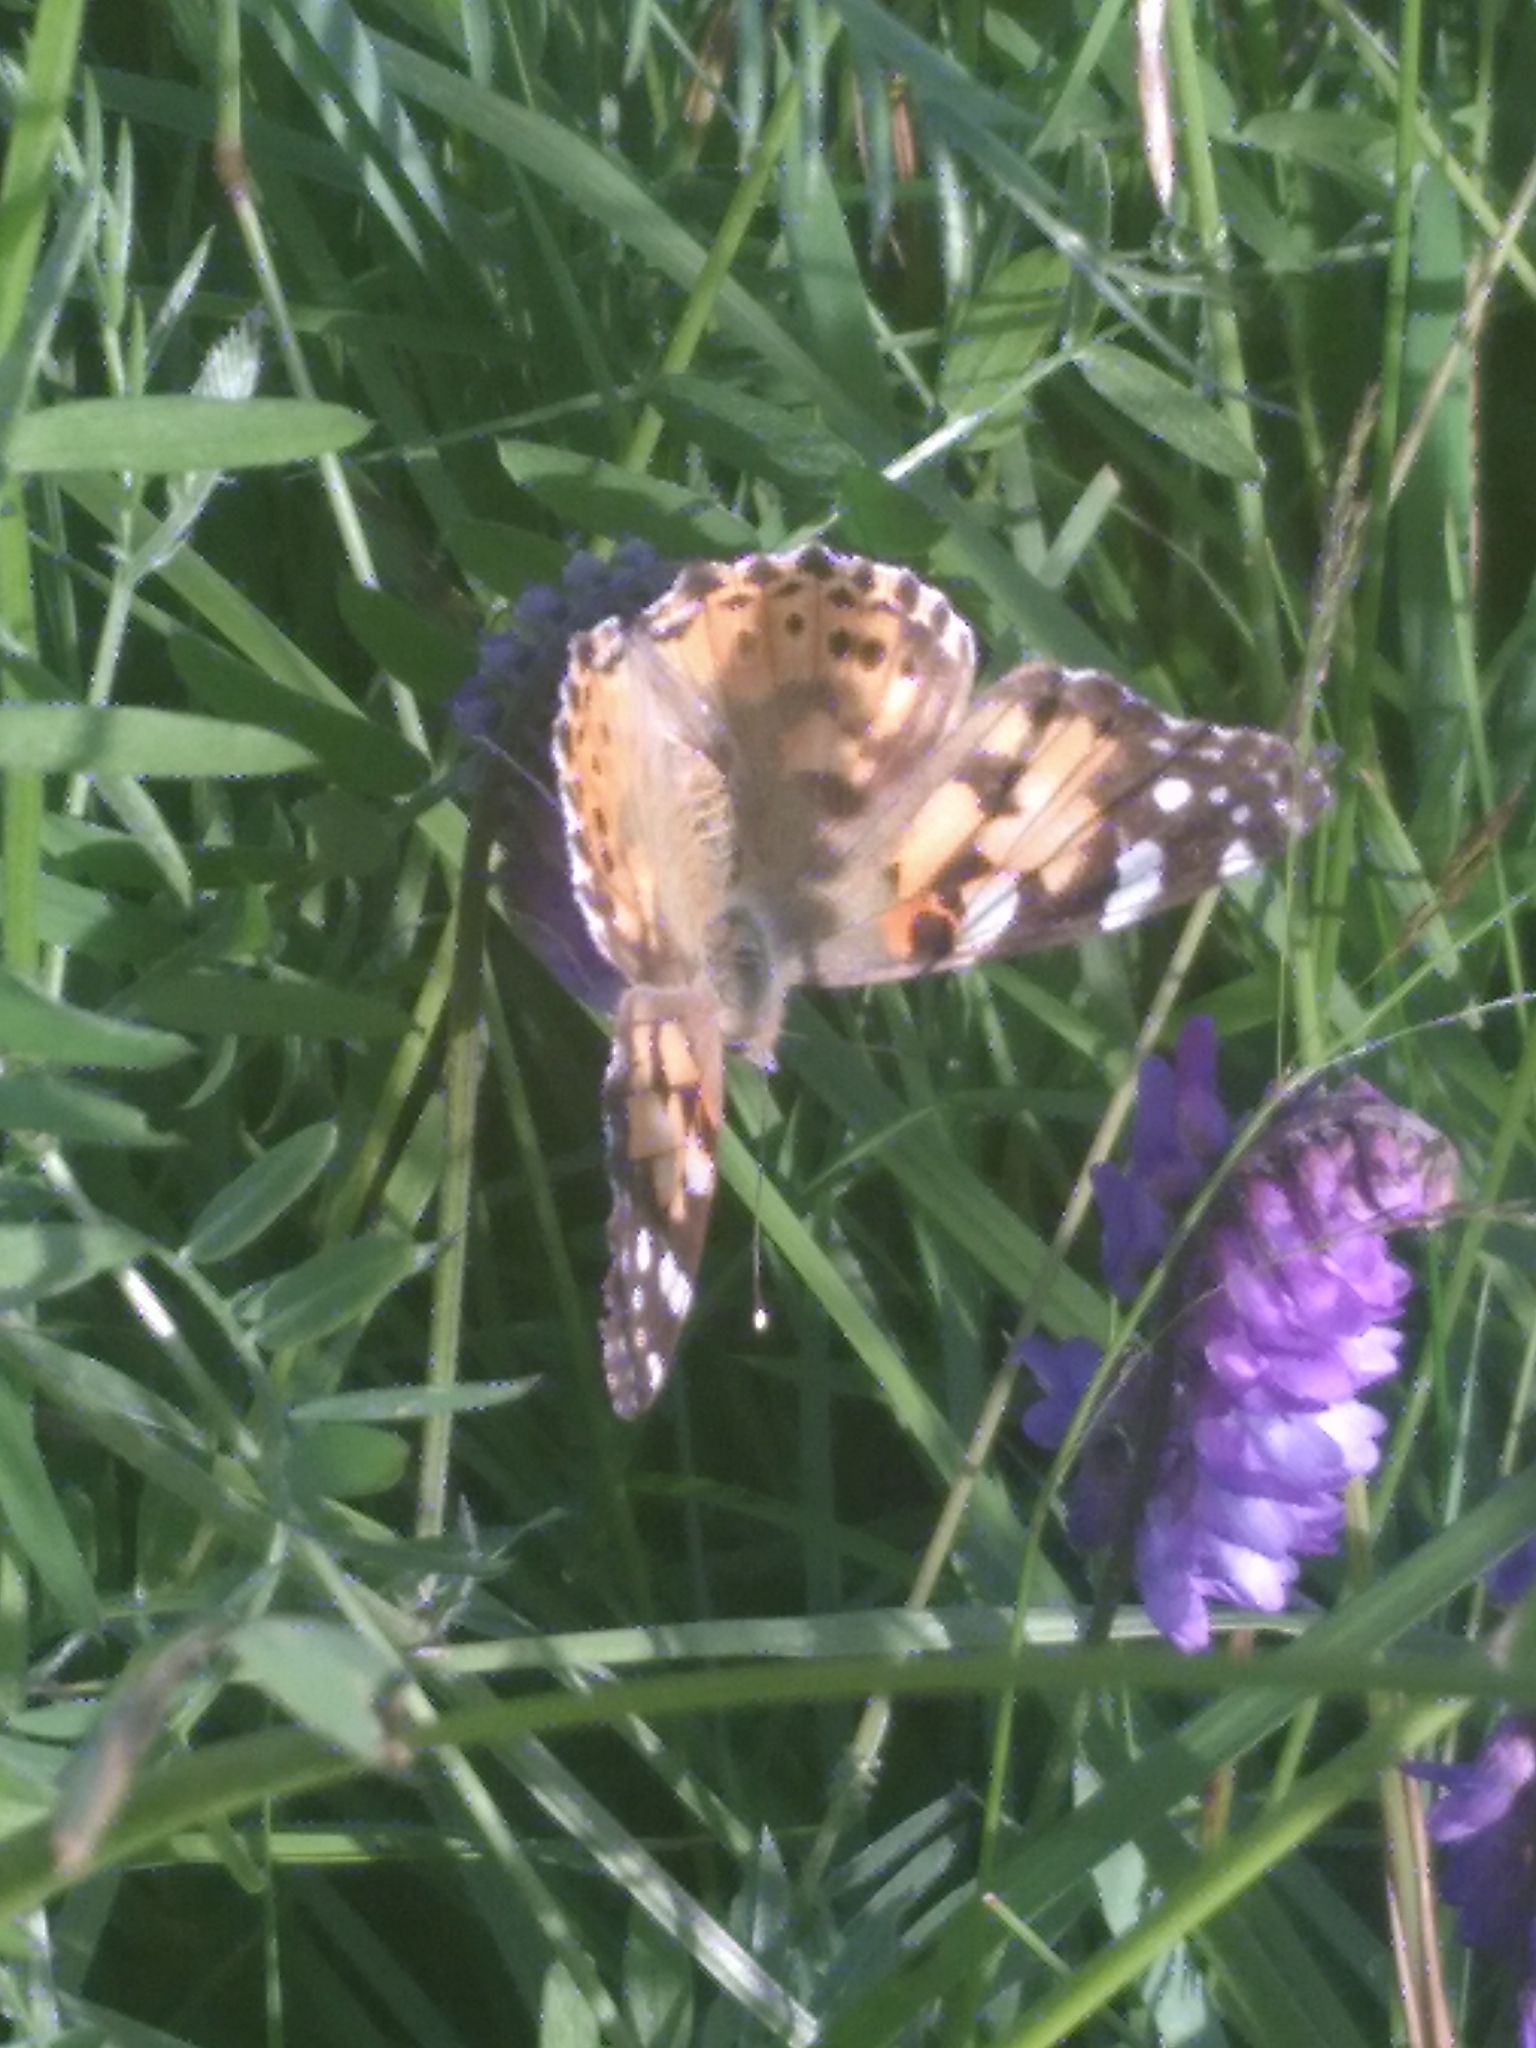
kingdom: Animalia
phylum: Arthropoda
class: Insecta
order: Lepidoptera
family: Nymphalidae
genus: Vanessa
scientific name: Vanessa cardui
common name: Painted lady
